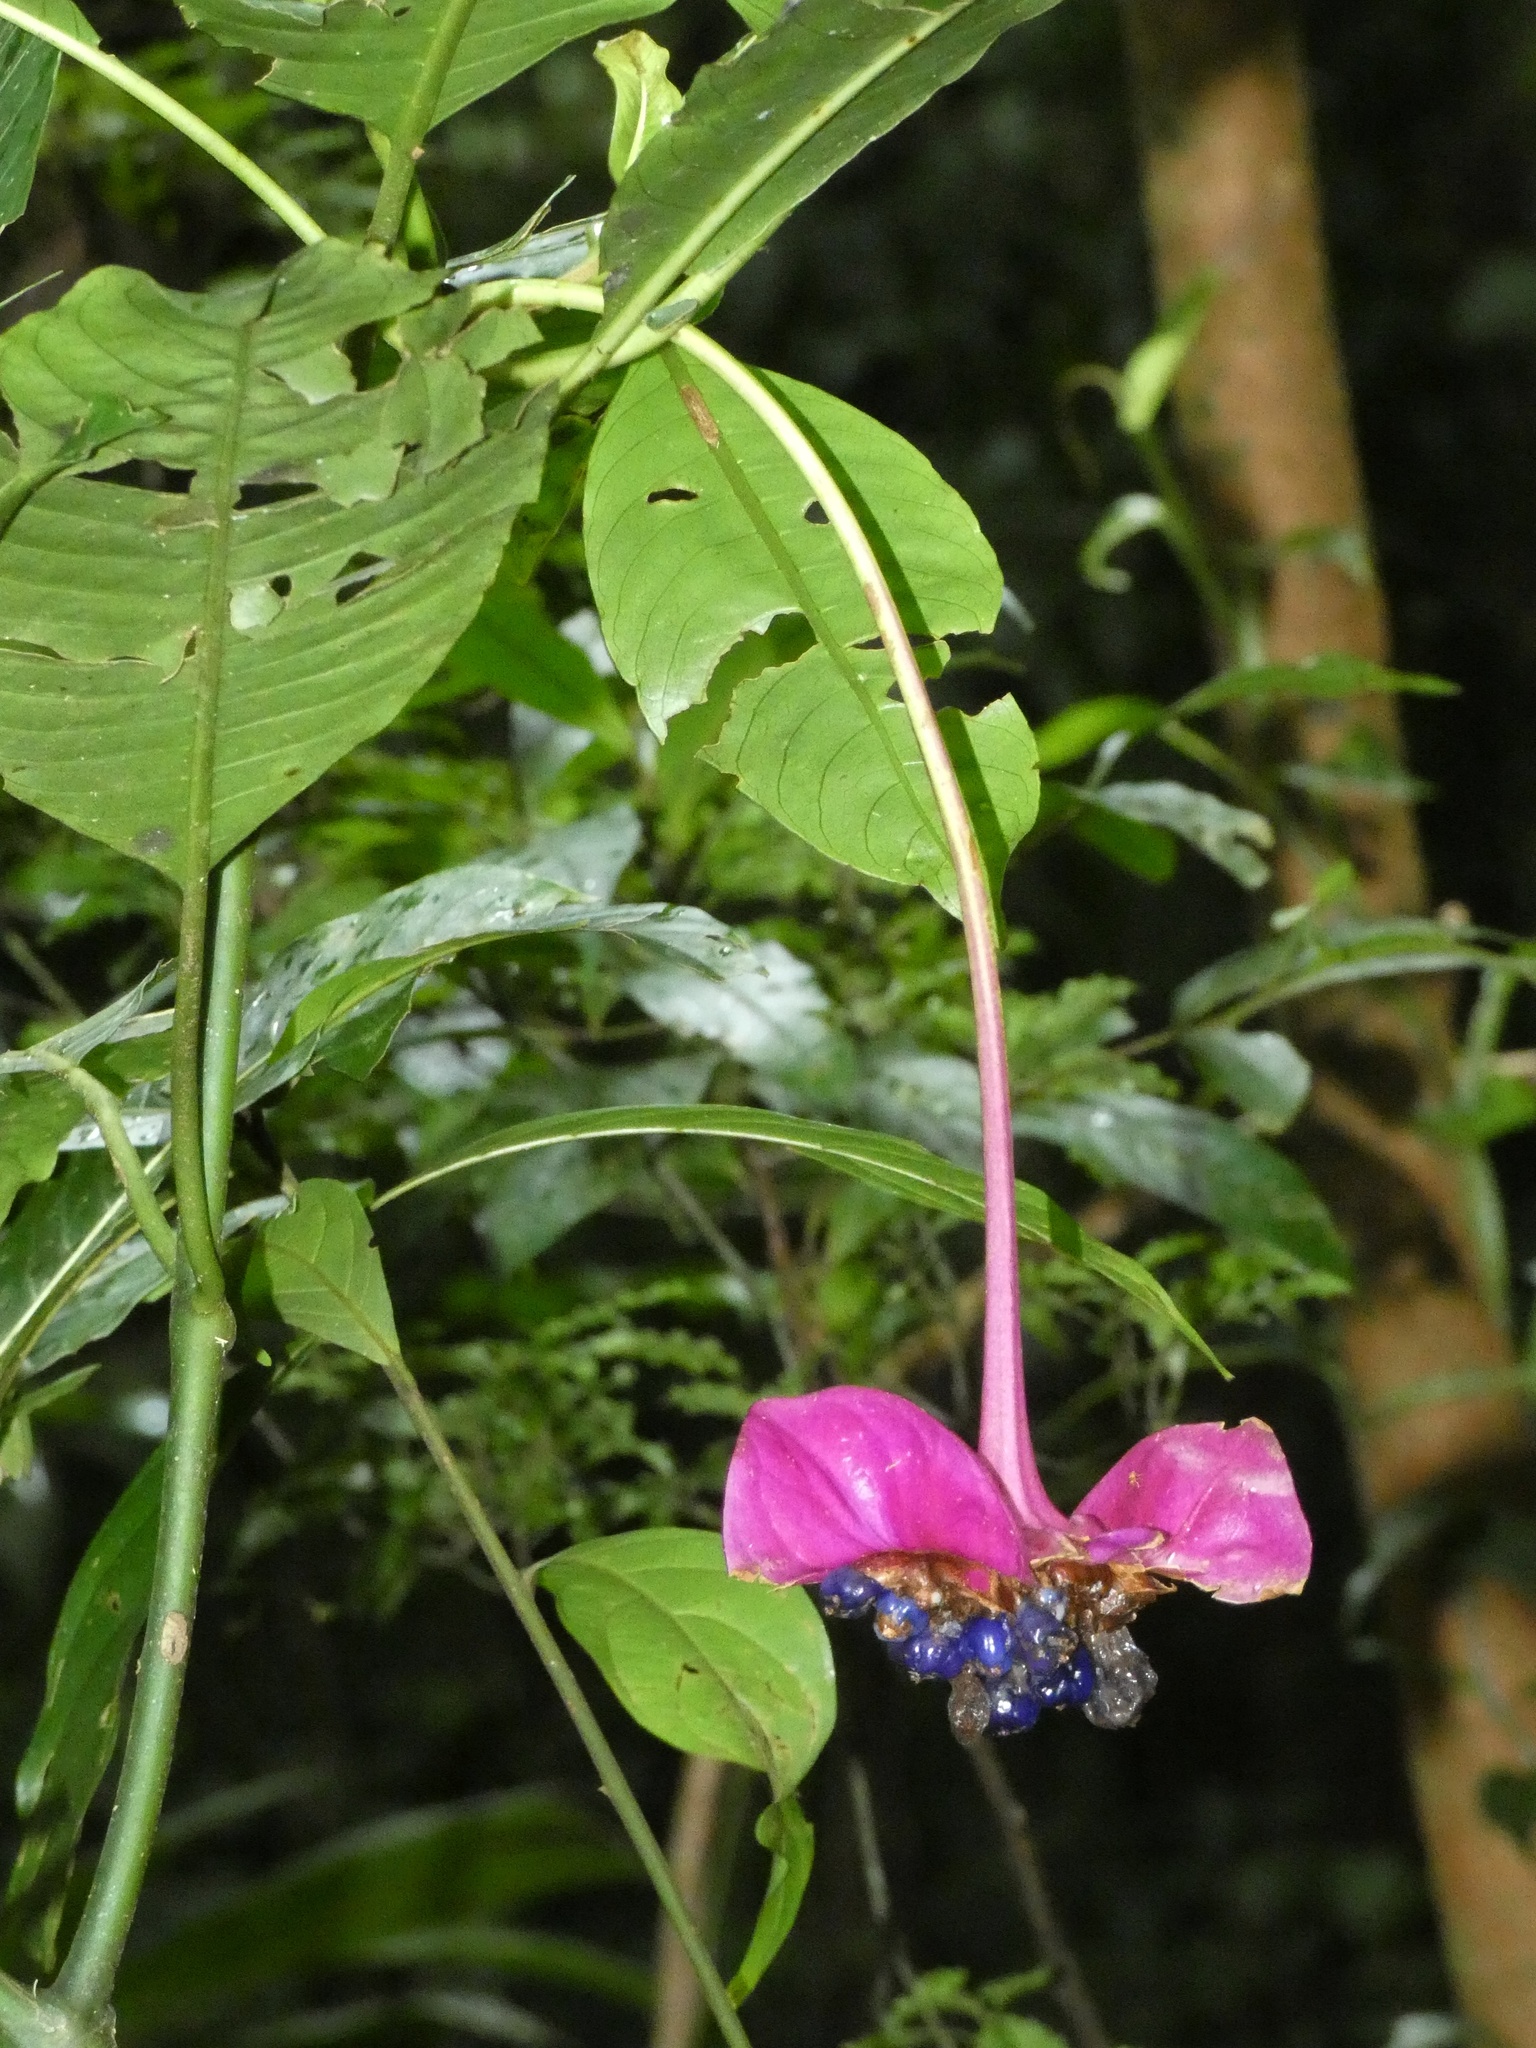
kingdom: Plantae
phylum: Tracheophyta
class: Magnoliopsida
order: Gentianales
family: Rubiaceae
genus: Palicourea
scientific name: Palicourea correae
